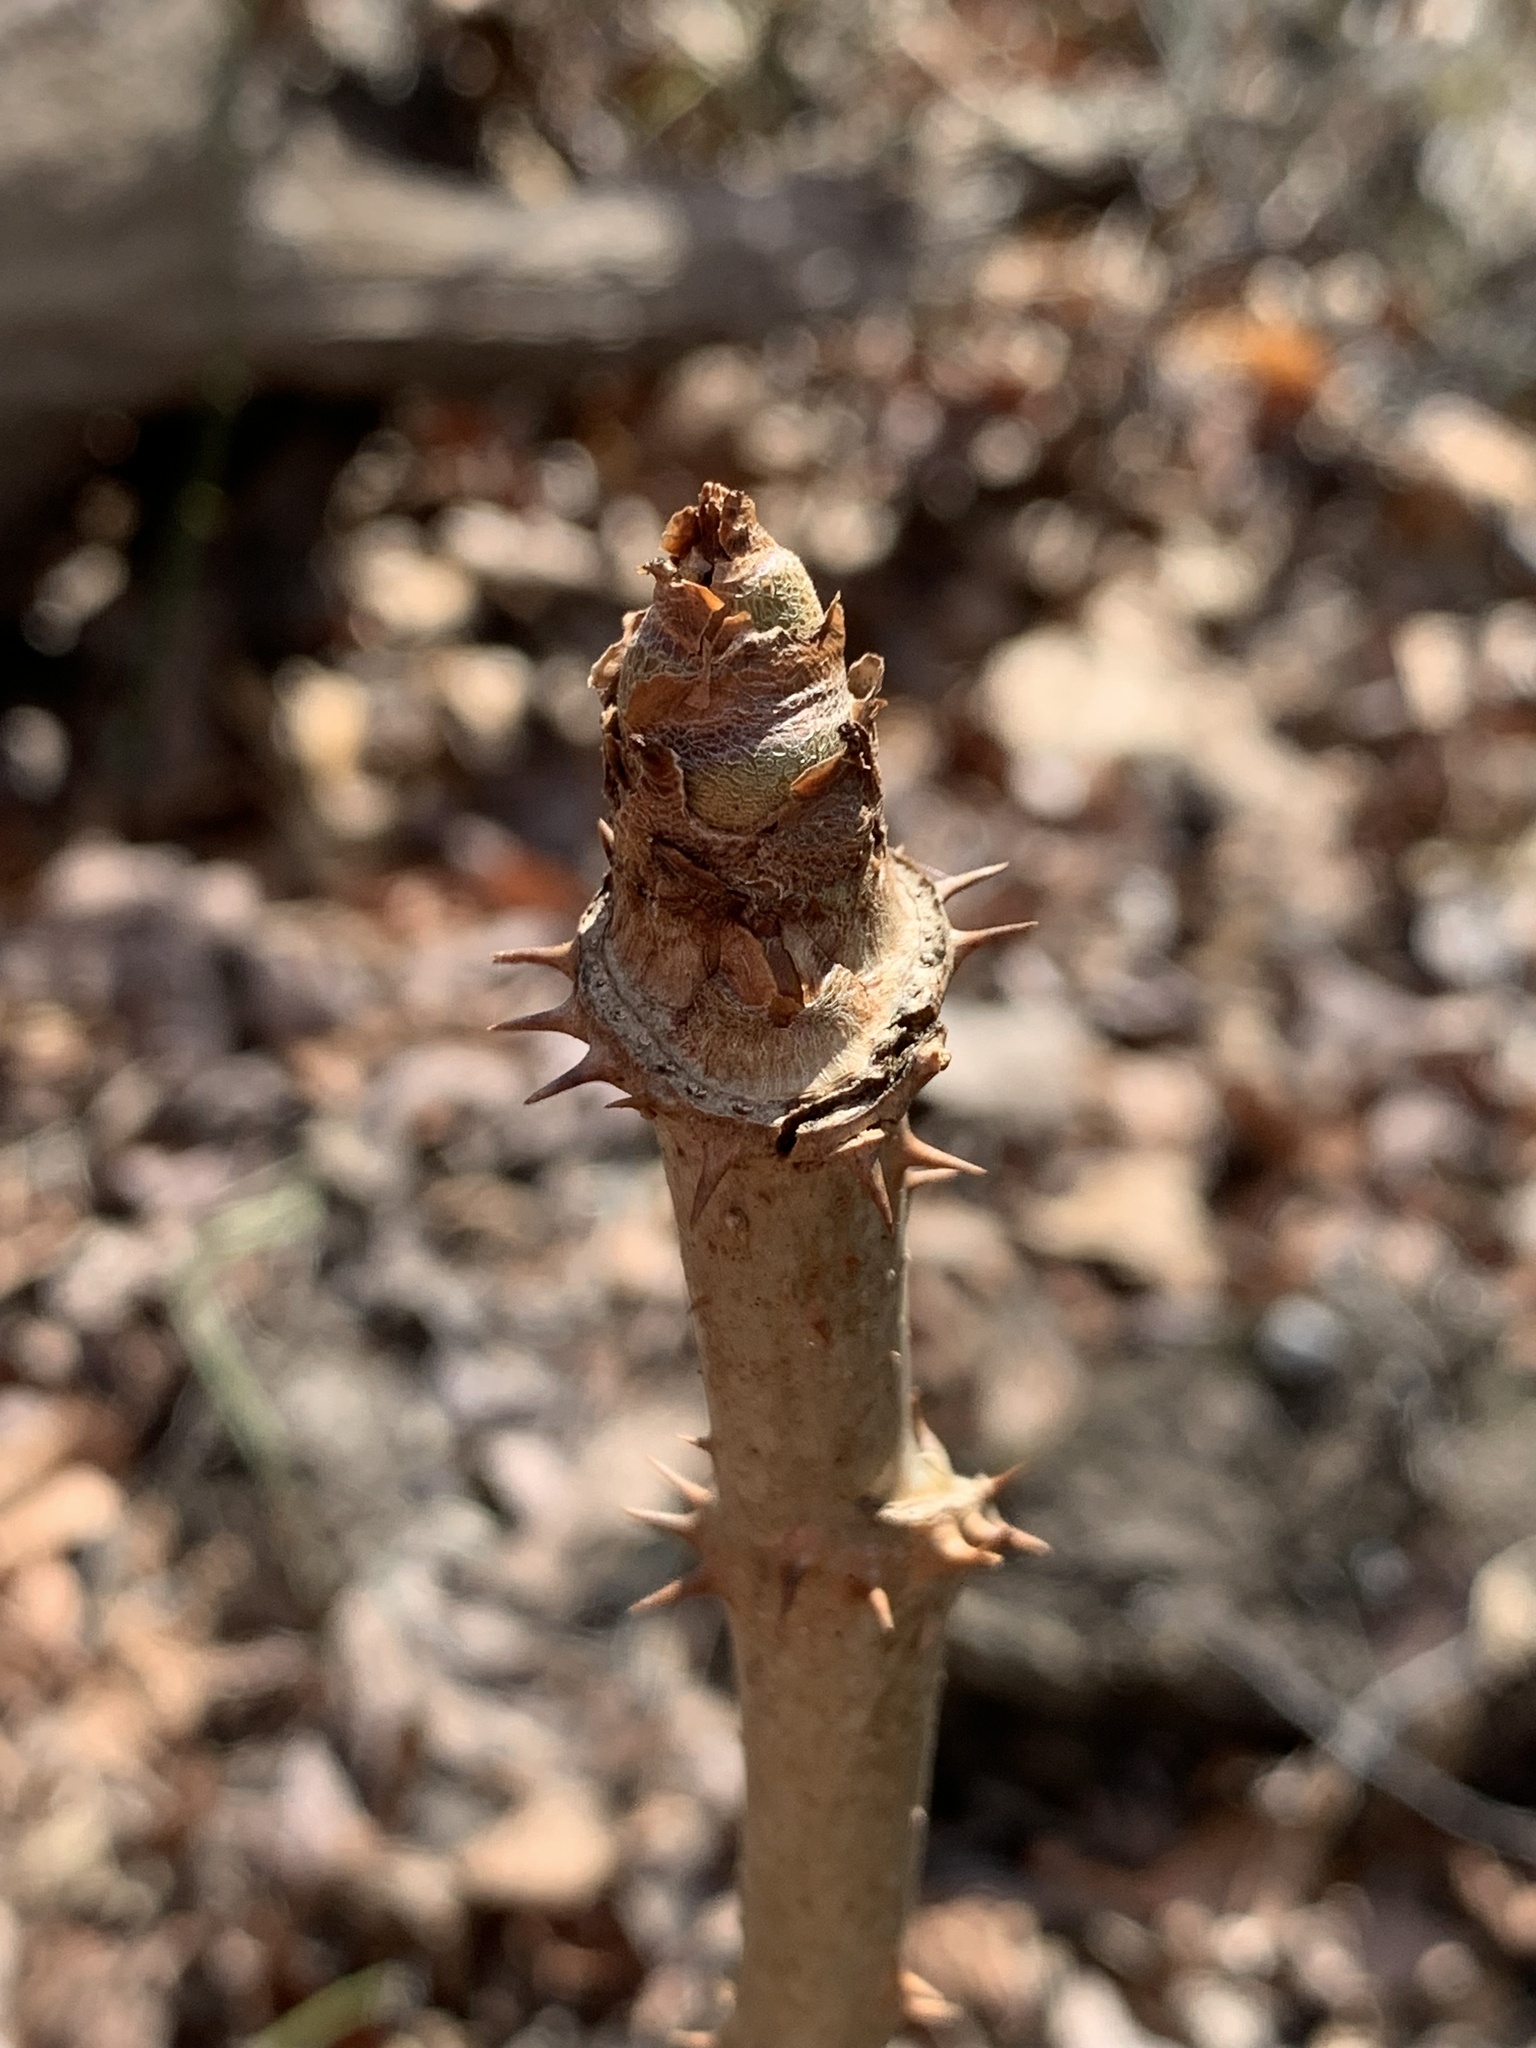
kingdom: Plantae
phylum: Tracheophyta
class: Magnoliopsida
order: Apiales
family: Araliaceae
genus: Aralia
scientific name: Aralia spinosa
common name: Hercules'-club
